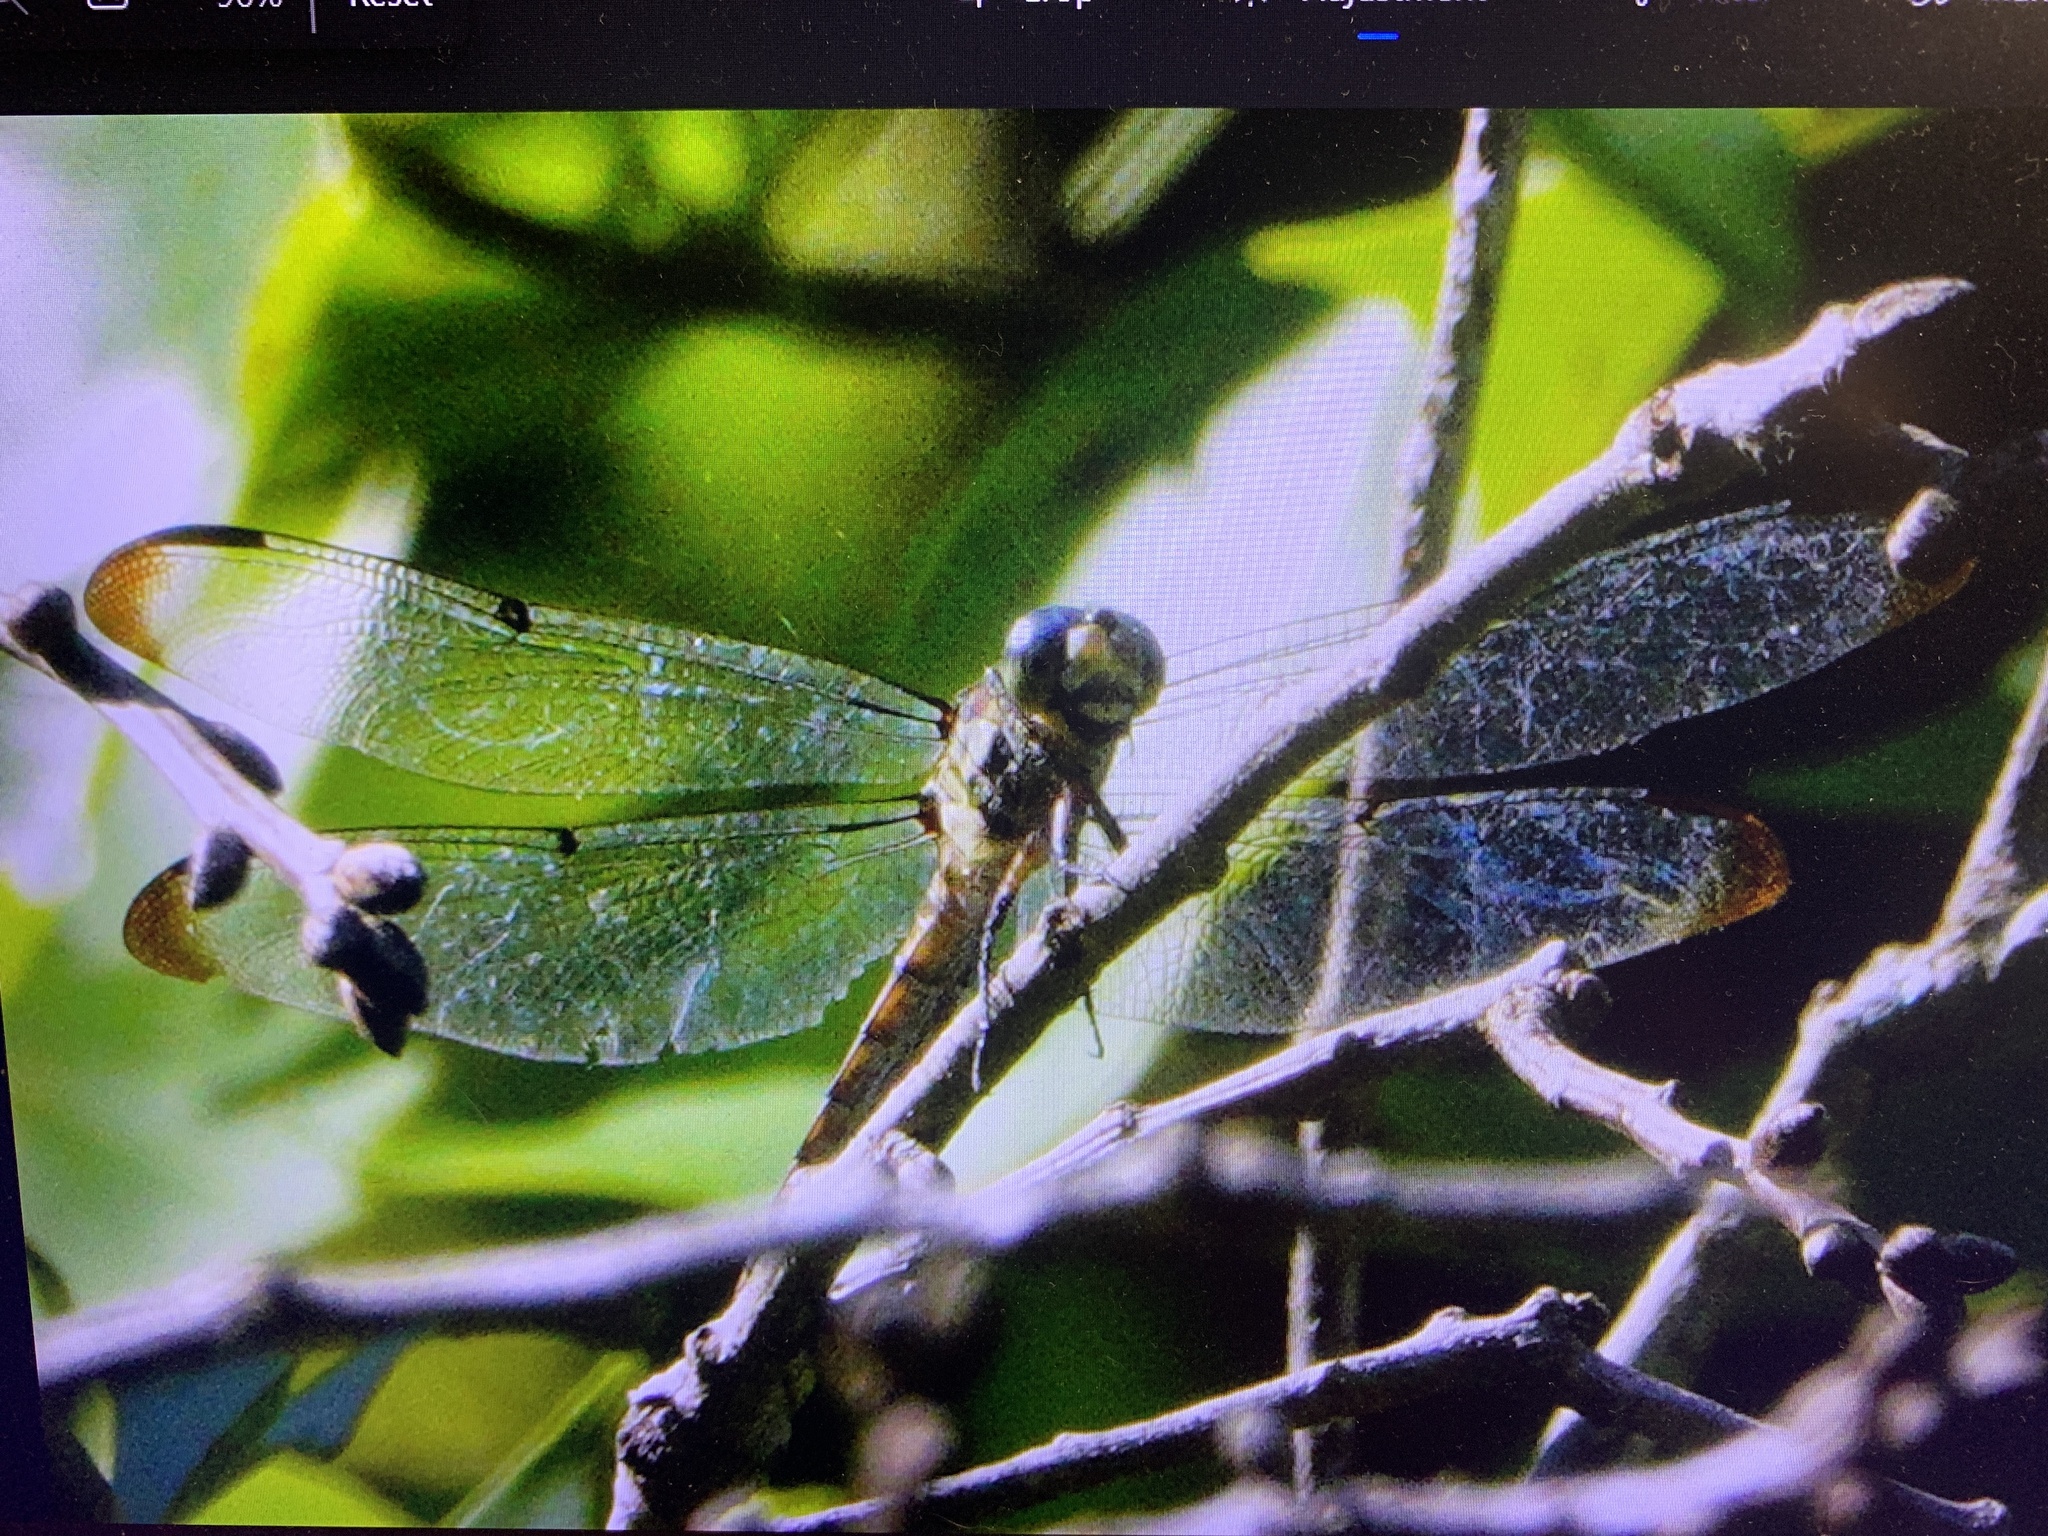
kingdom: Animalia
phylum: Arthropoda
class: Insecta
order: Odonata
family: Libellulidae
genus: Libellula
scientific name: Libellula vibrans
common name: Great blue skimmer
